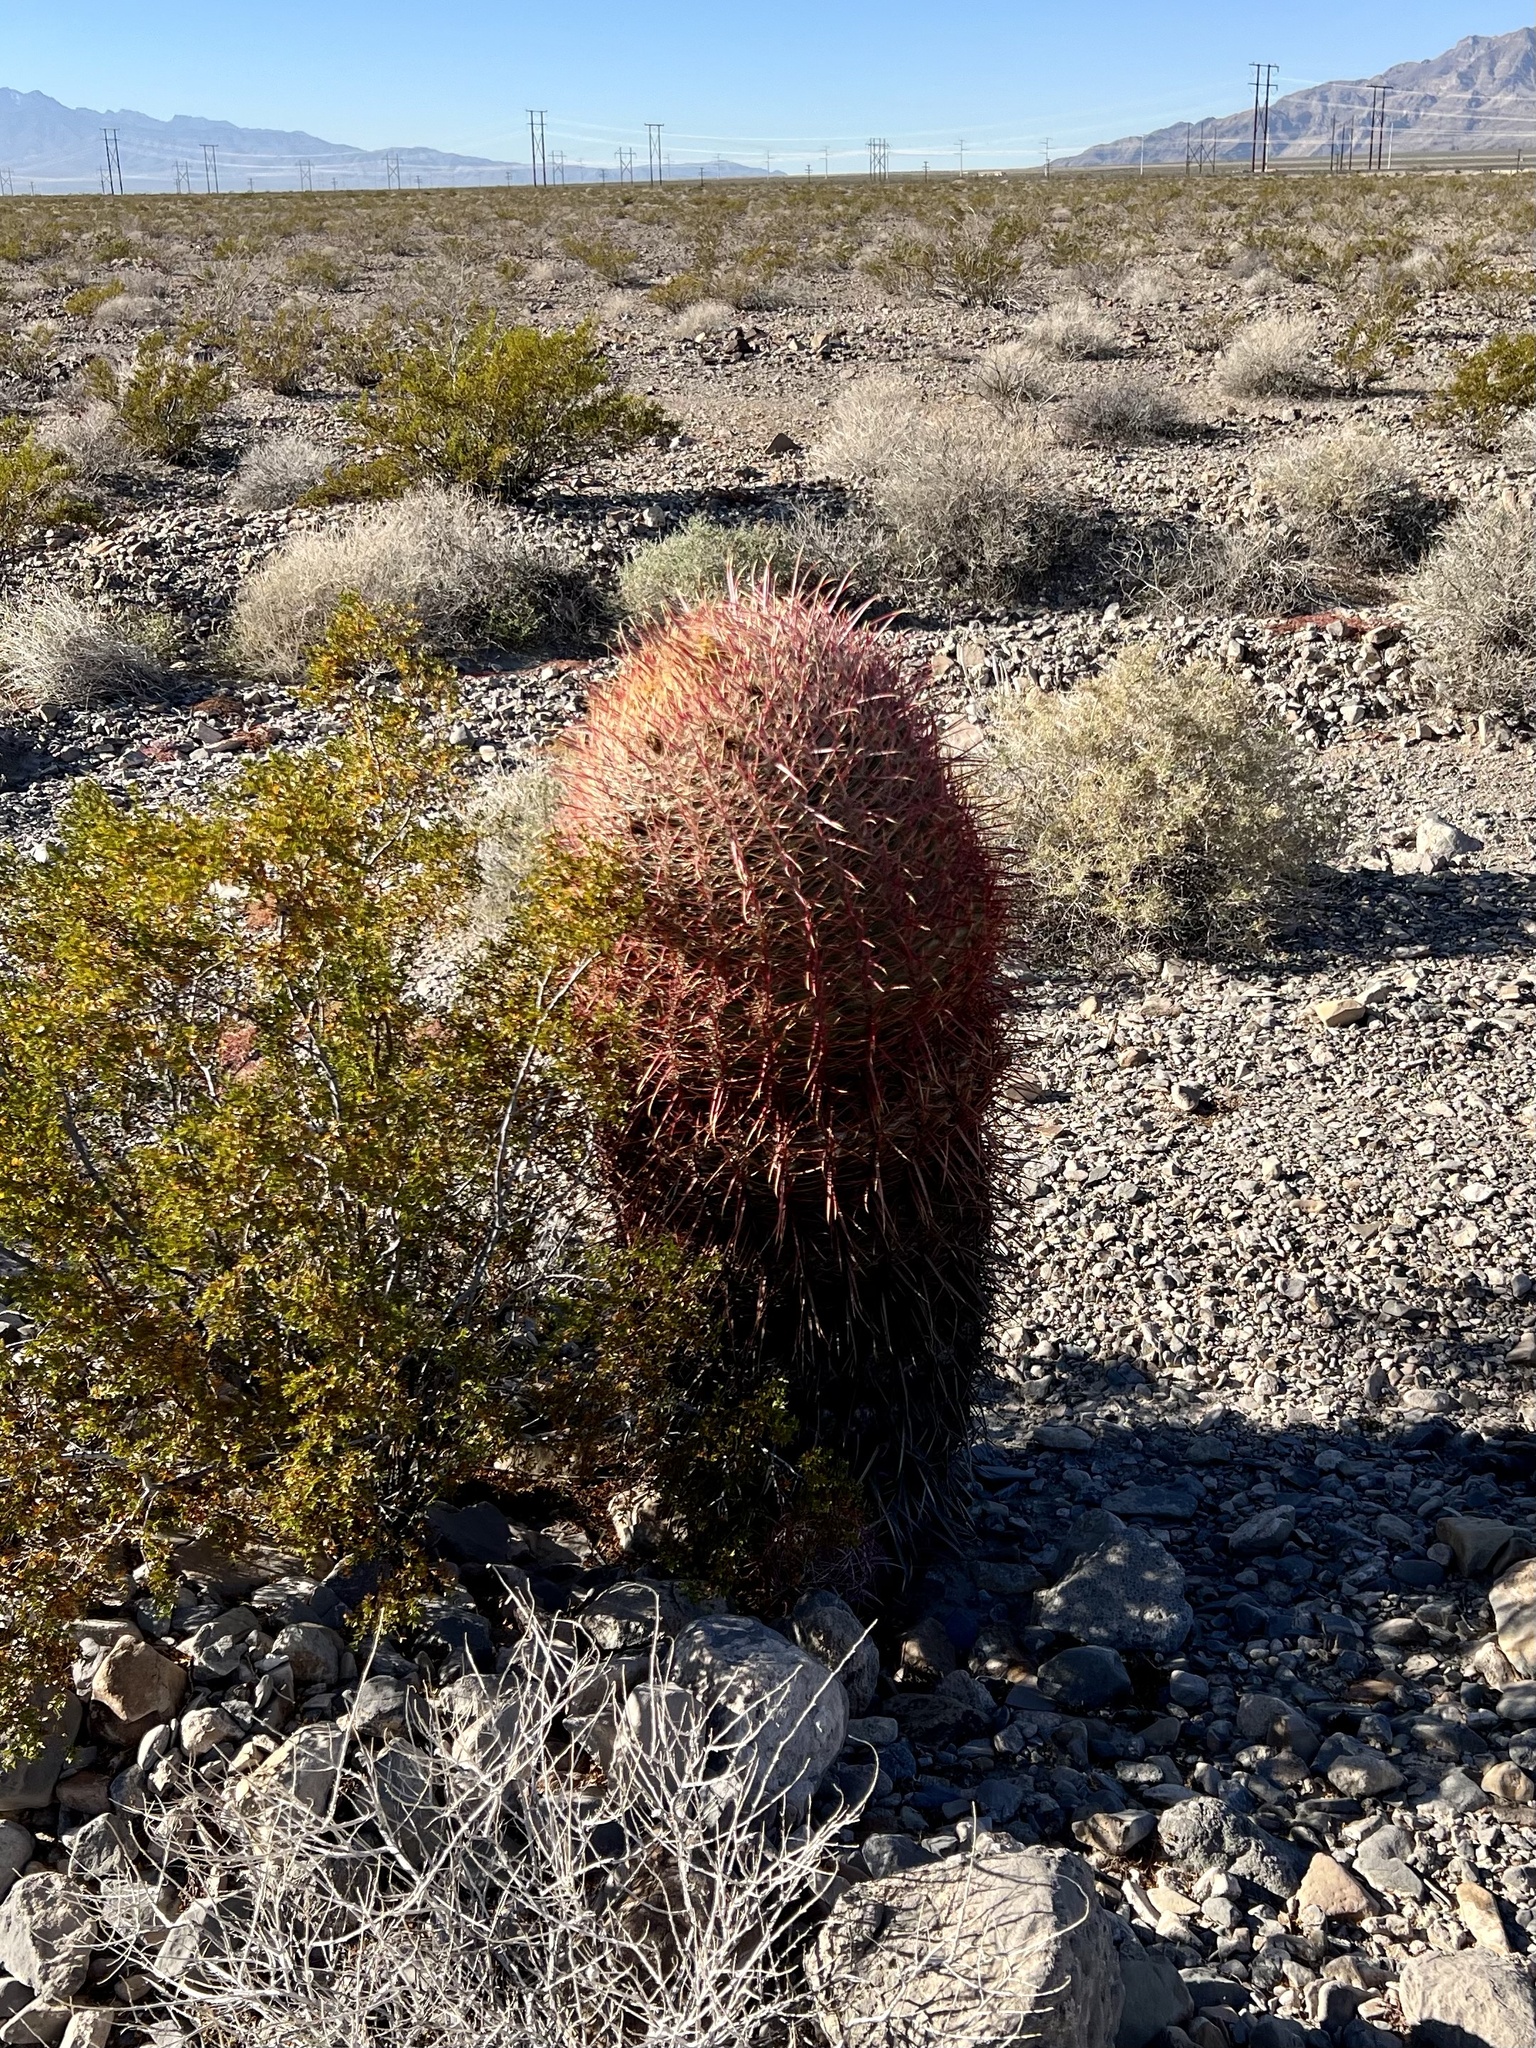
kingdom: Plantae
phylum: Tracheophyta
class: Magnoliopsida
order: Caryophyllales
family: Cactaceae
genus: Ferocactus
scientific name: Ferocactus cylindraceus
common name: California barrel cactus
